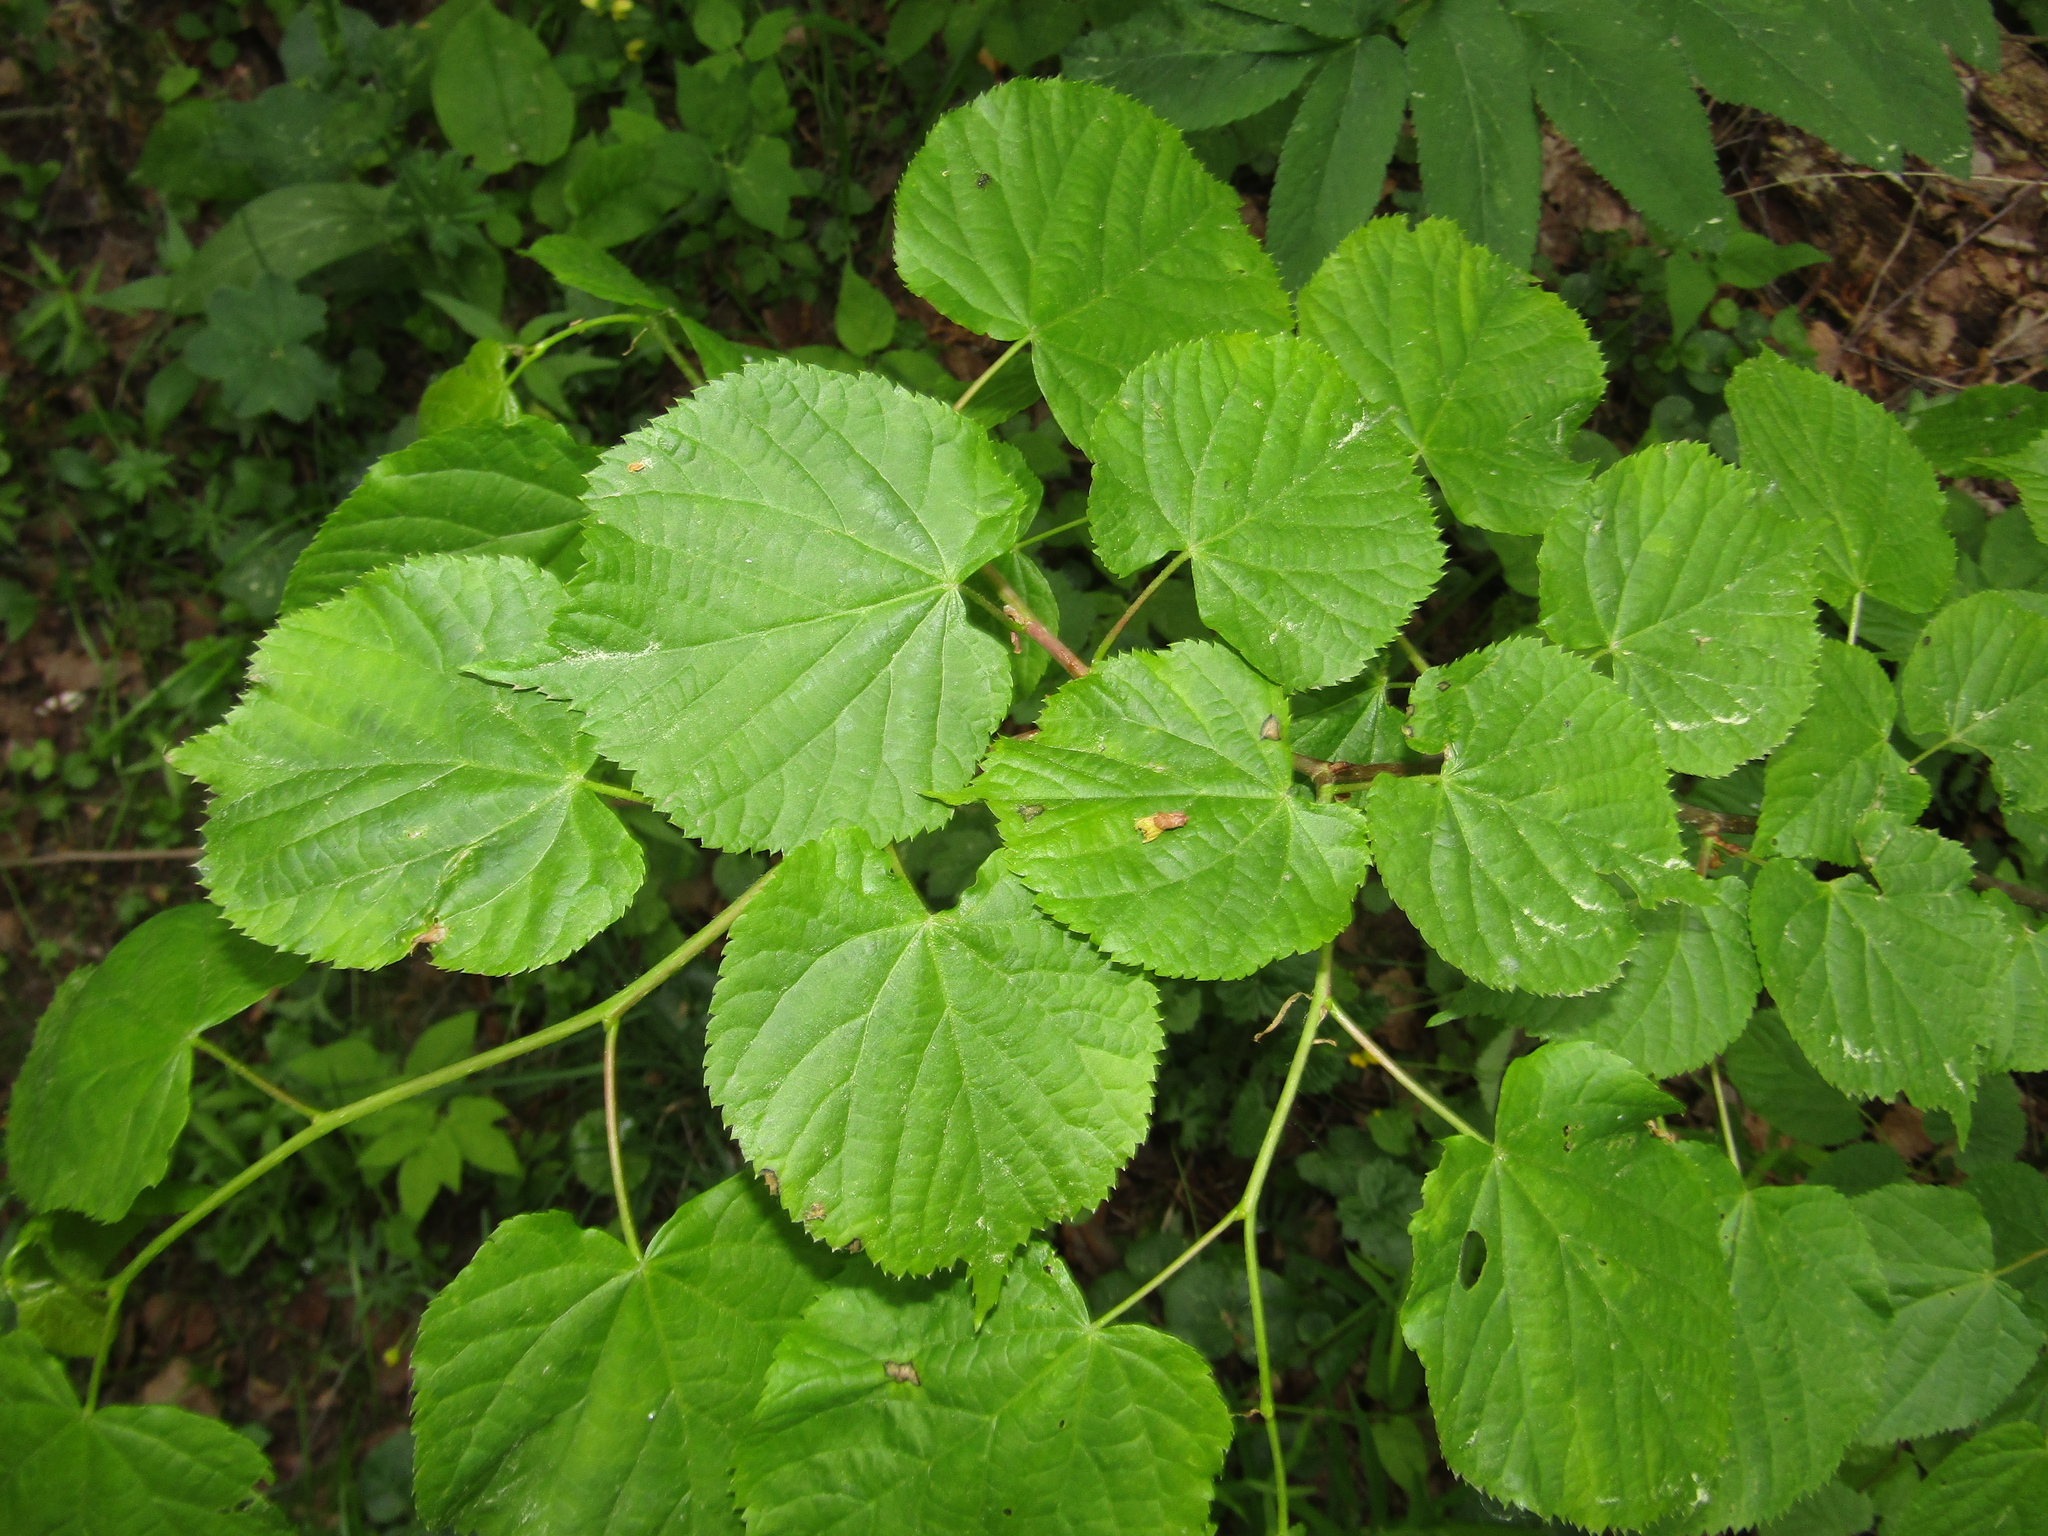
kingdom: Plantae
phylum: Tracheophyta
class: Magnoliopsida
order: Malvales
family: Malvaceae
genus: Tilia
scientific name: Tilia cordata
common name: Small-leaved lime
